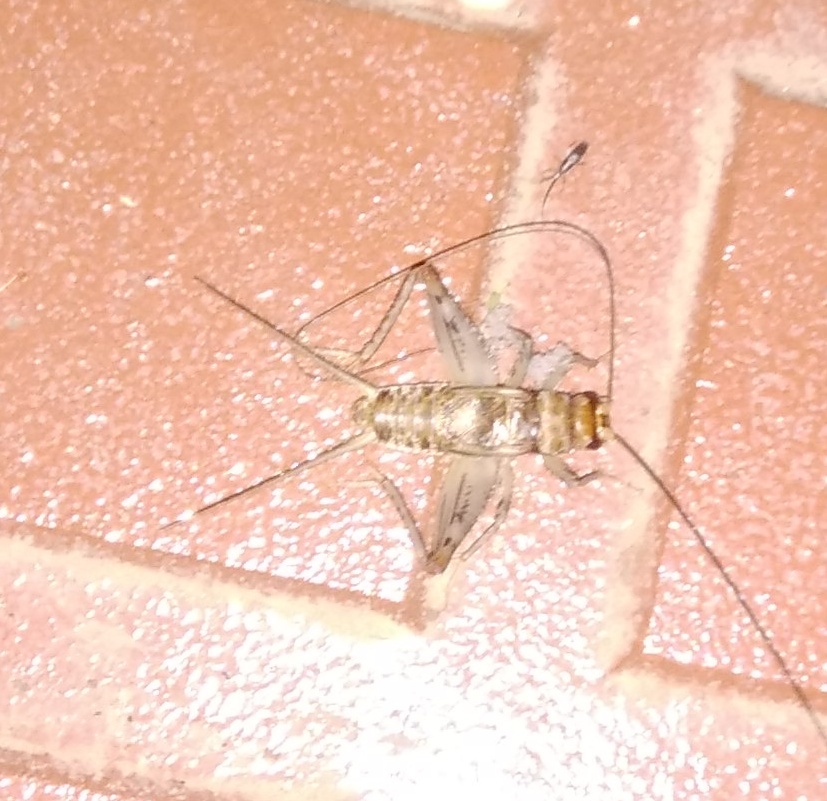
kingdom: Animalia
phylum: Arthropoda
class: Insecta
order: Orthoptera
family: Gryllidae
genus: Gryllodes
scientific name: Gryllodes sigillatus
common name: Tropical house cricket
